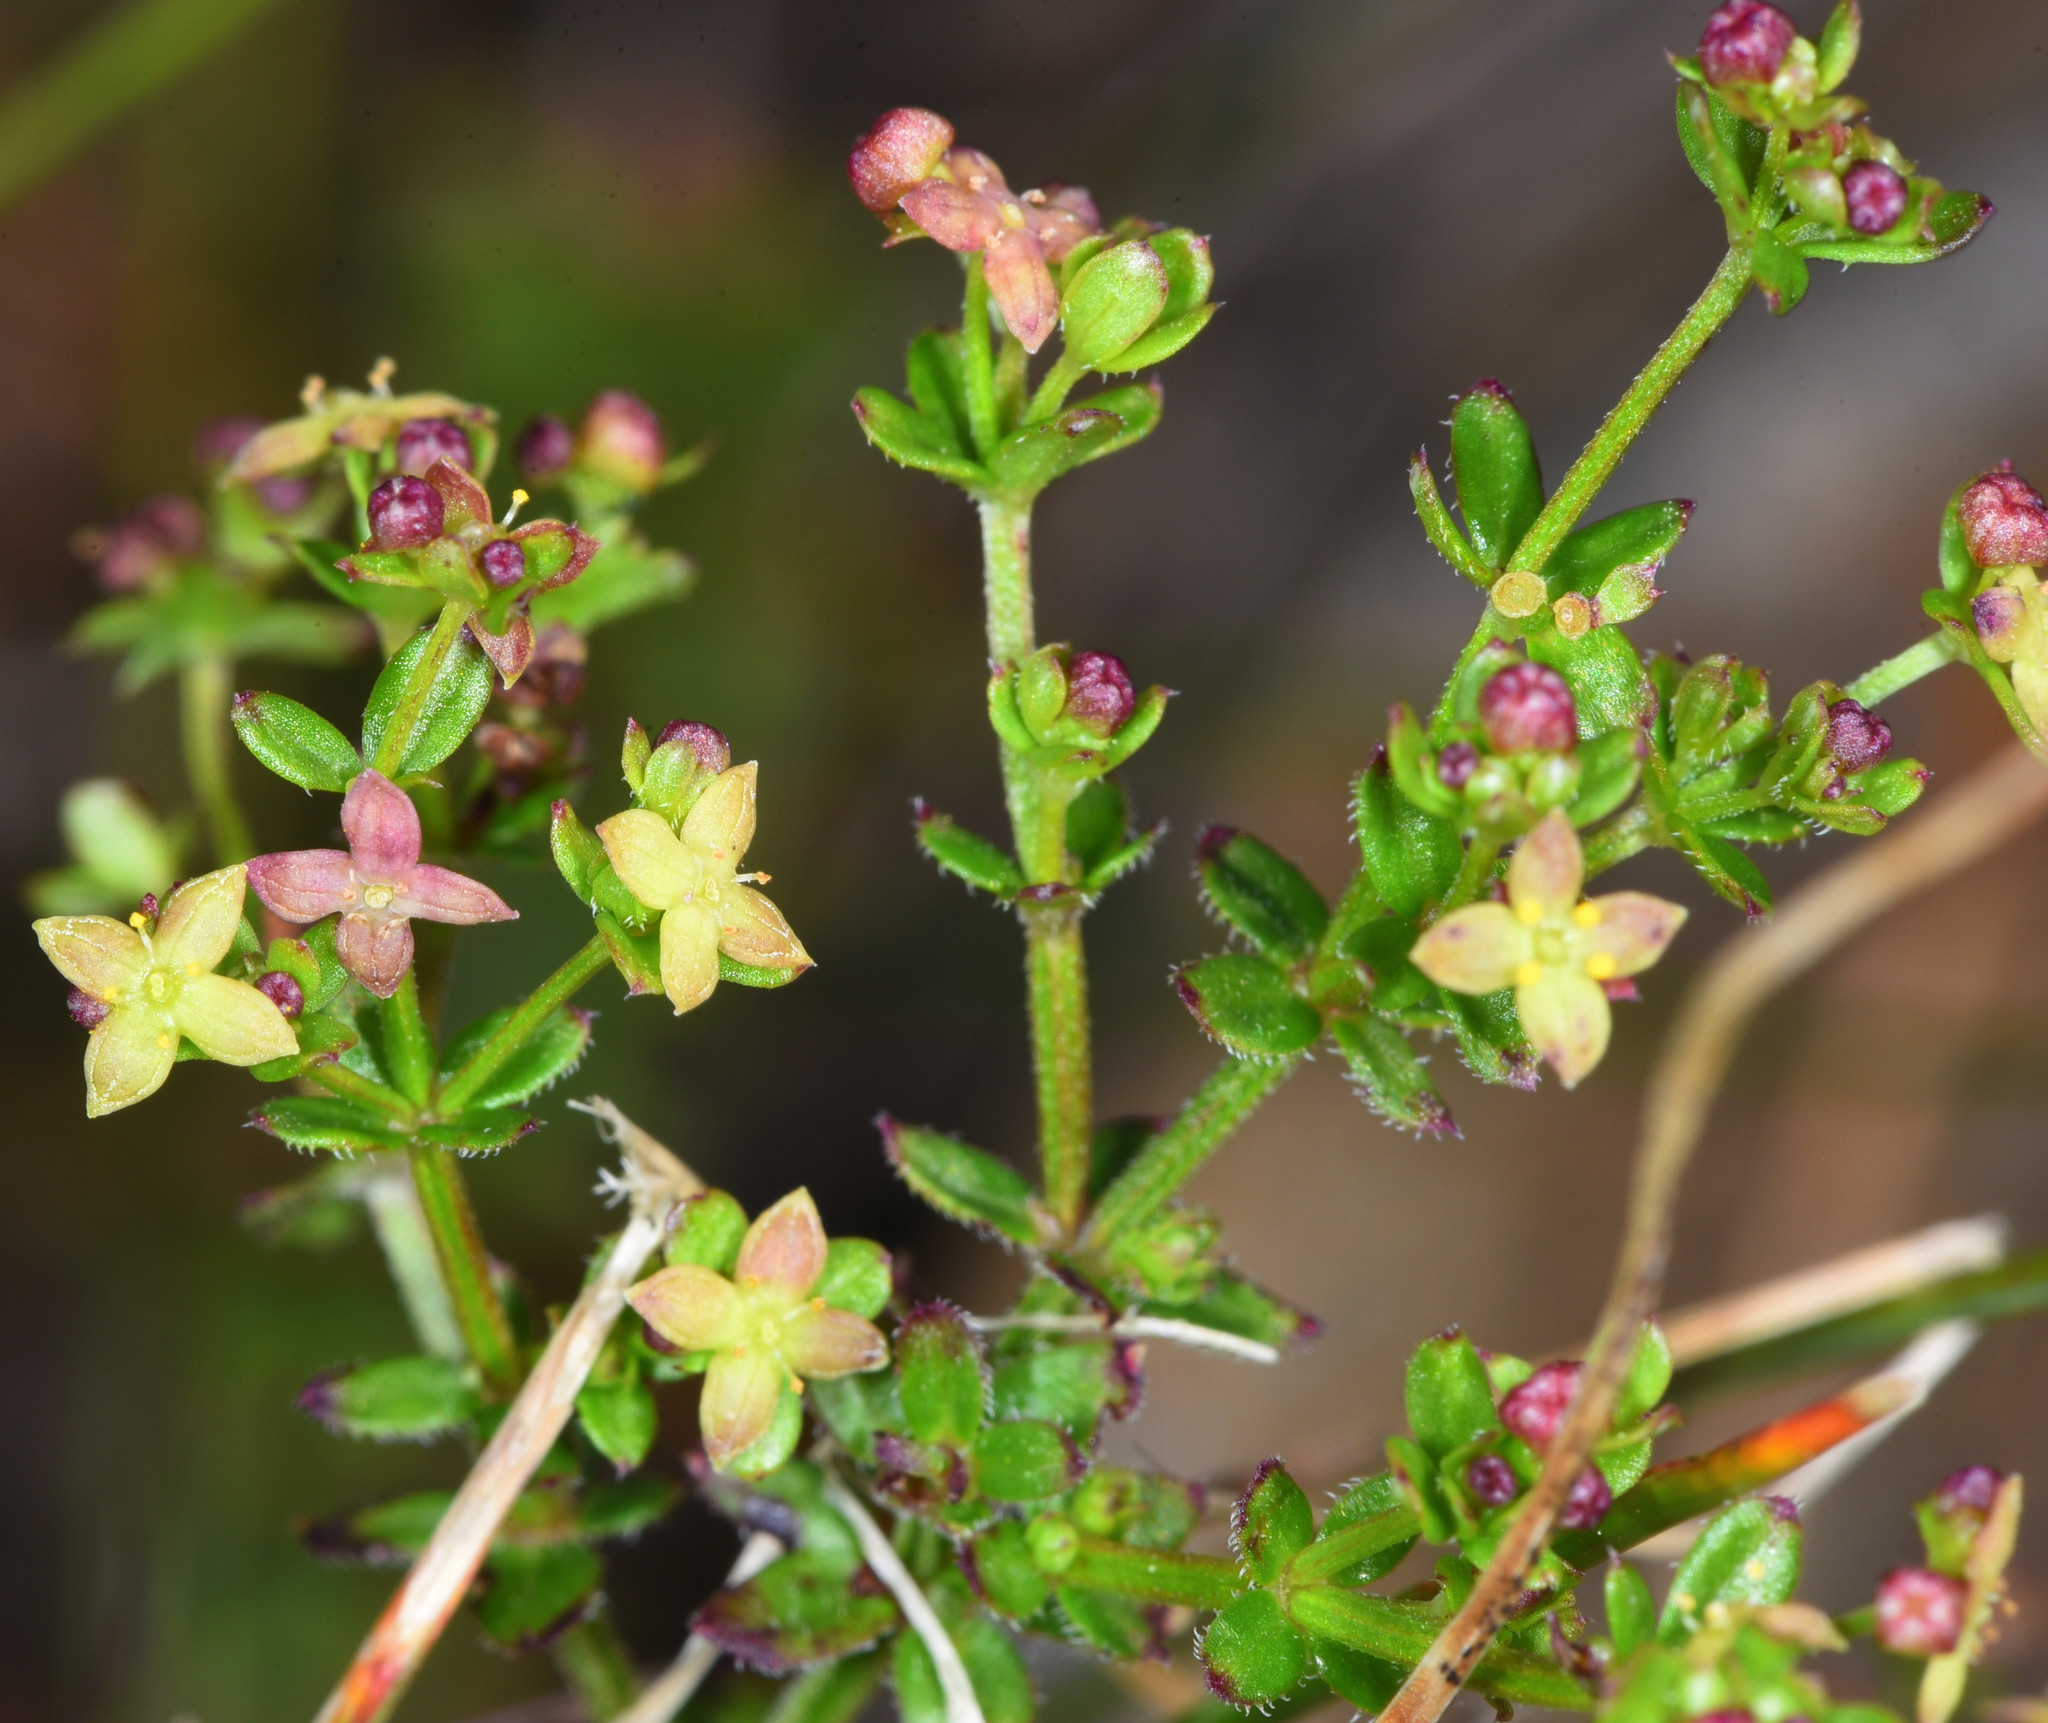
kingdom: Plantae
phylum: Tracheophyta
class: Magnoliopsida
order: Gentianales
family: Rubiaceae
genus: Galium
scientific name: Galium porrigens
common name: Climbing bedstraw
